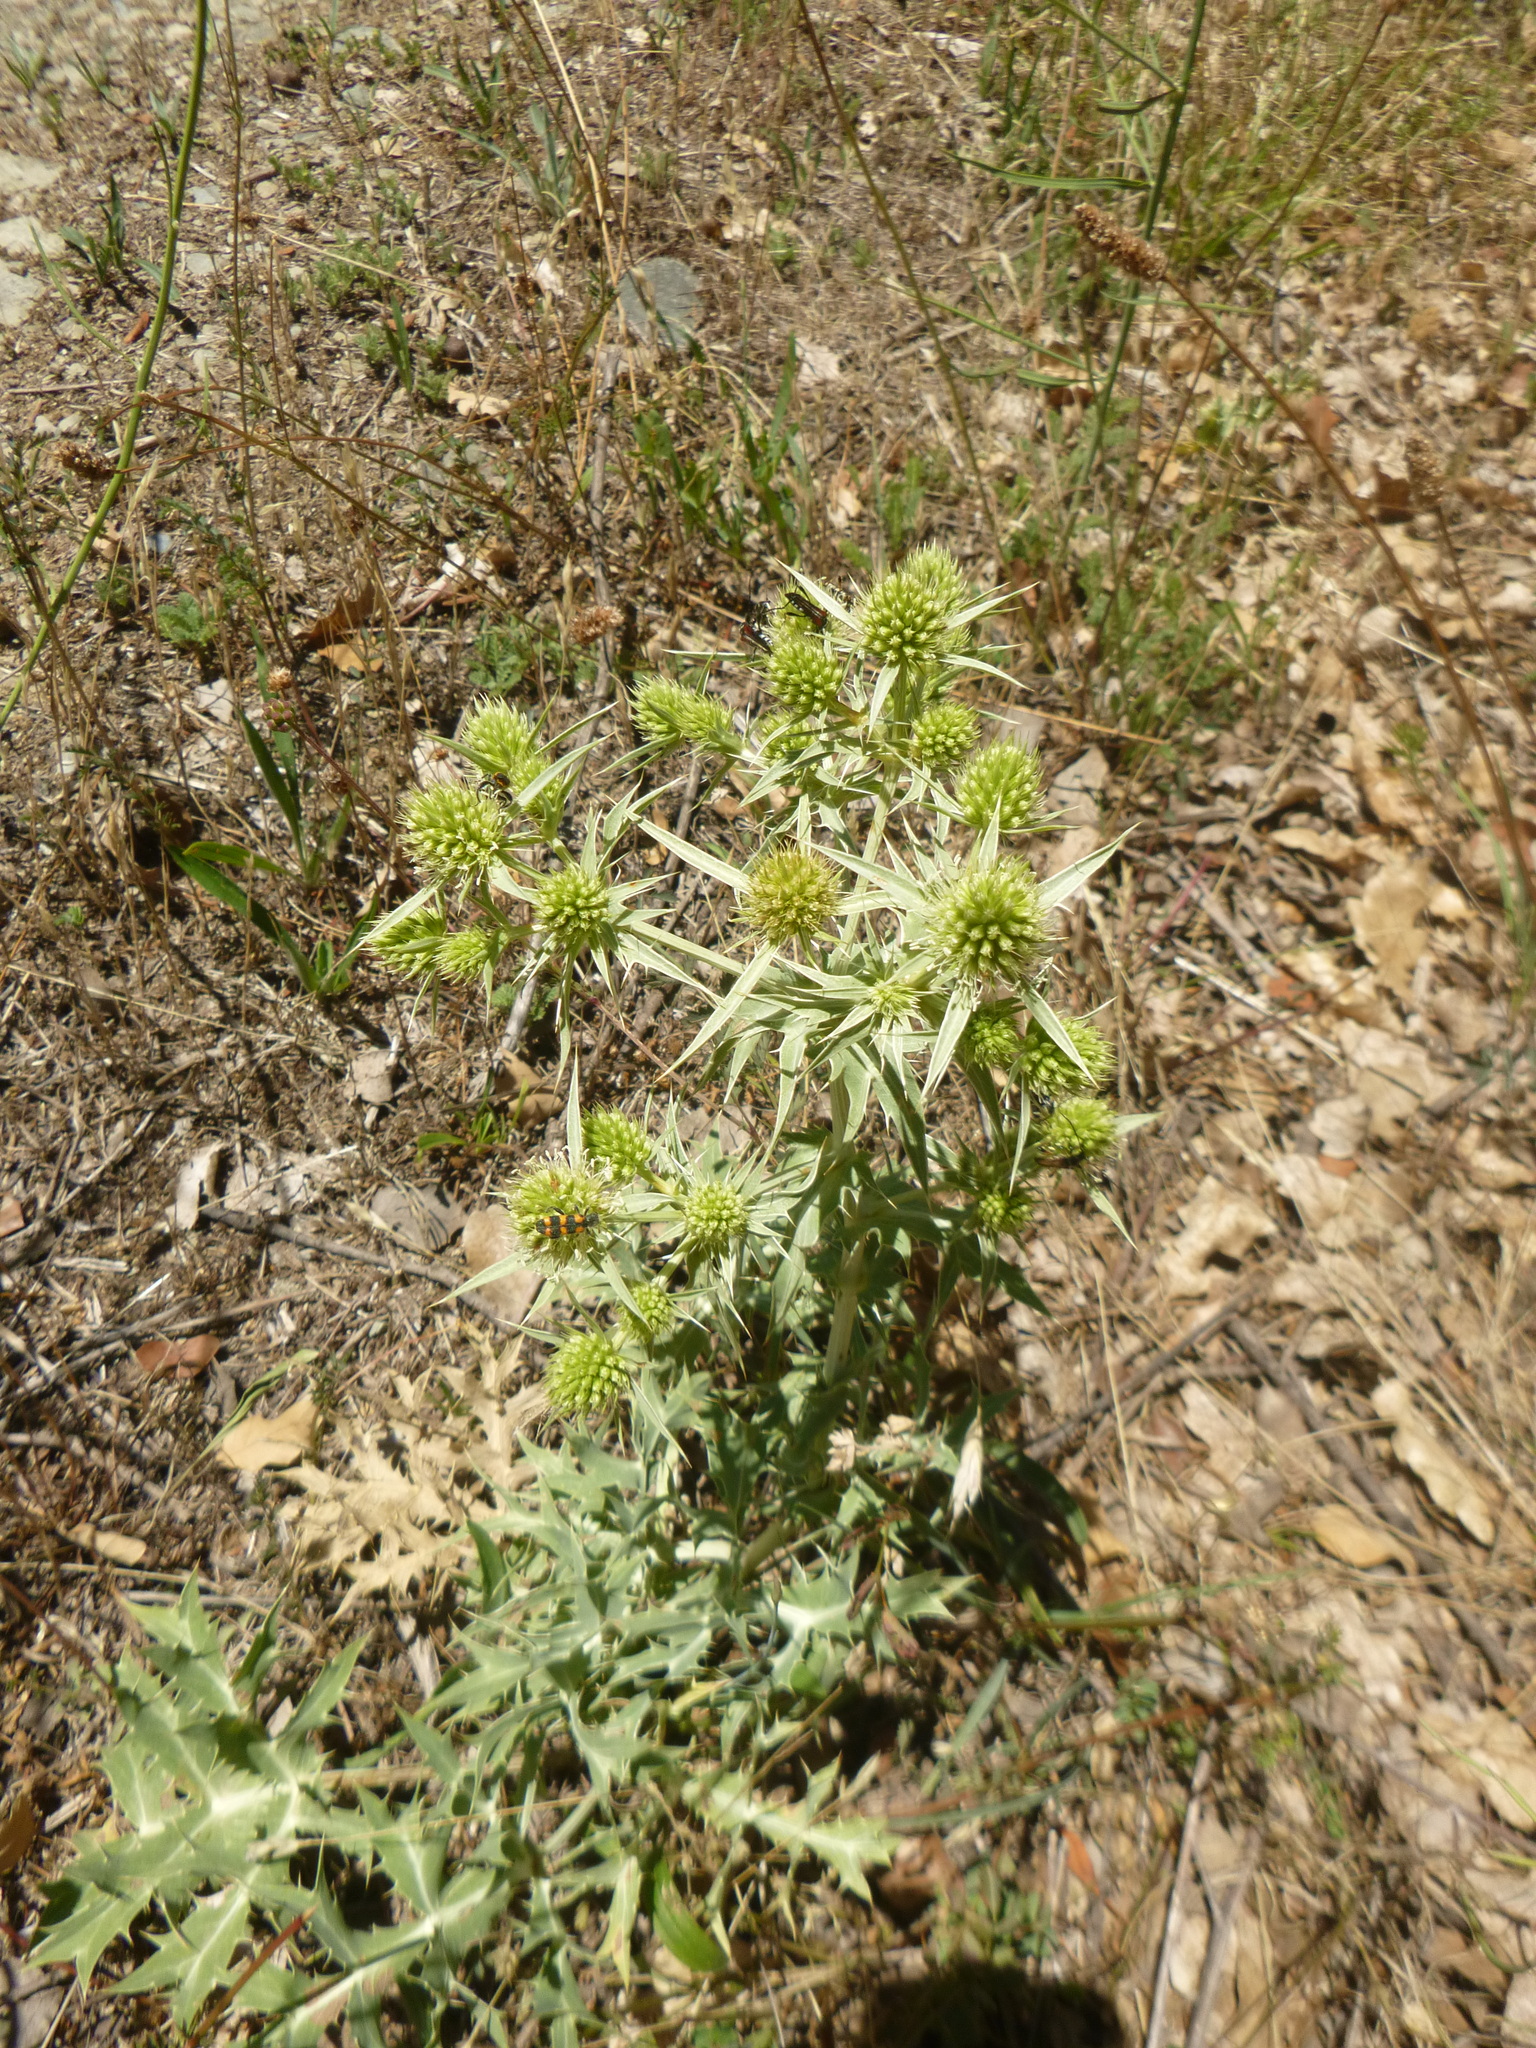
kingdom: Plantae
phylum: Tracheophyta
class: Magnoliopsida
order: Apiales
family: Apiaceae
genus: Eryngium
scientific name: Eryngium campestre
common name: Field eryngo
